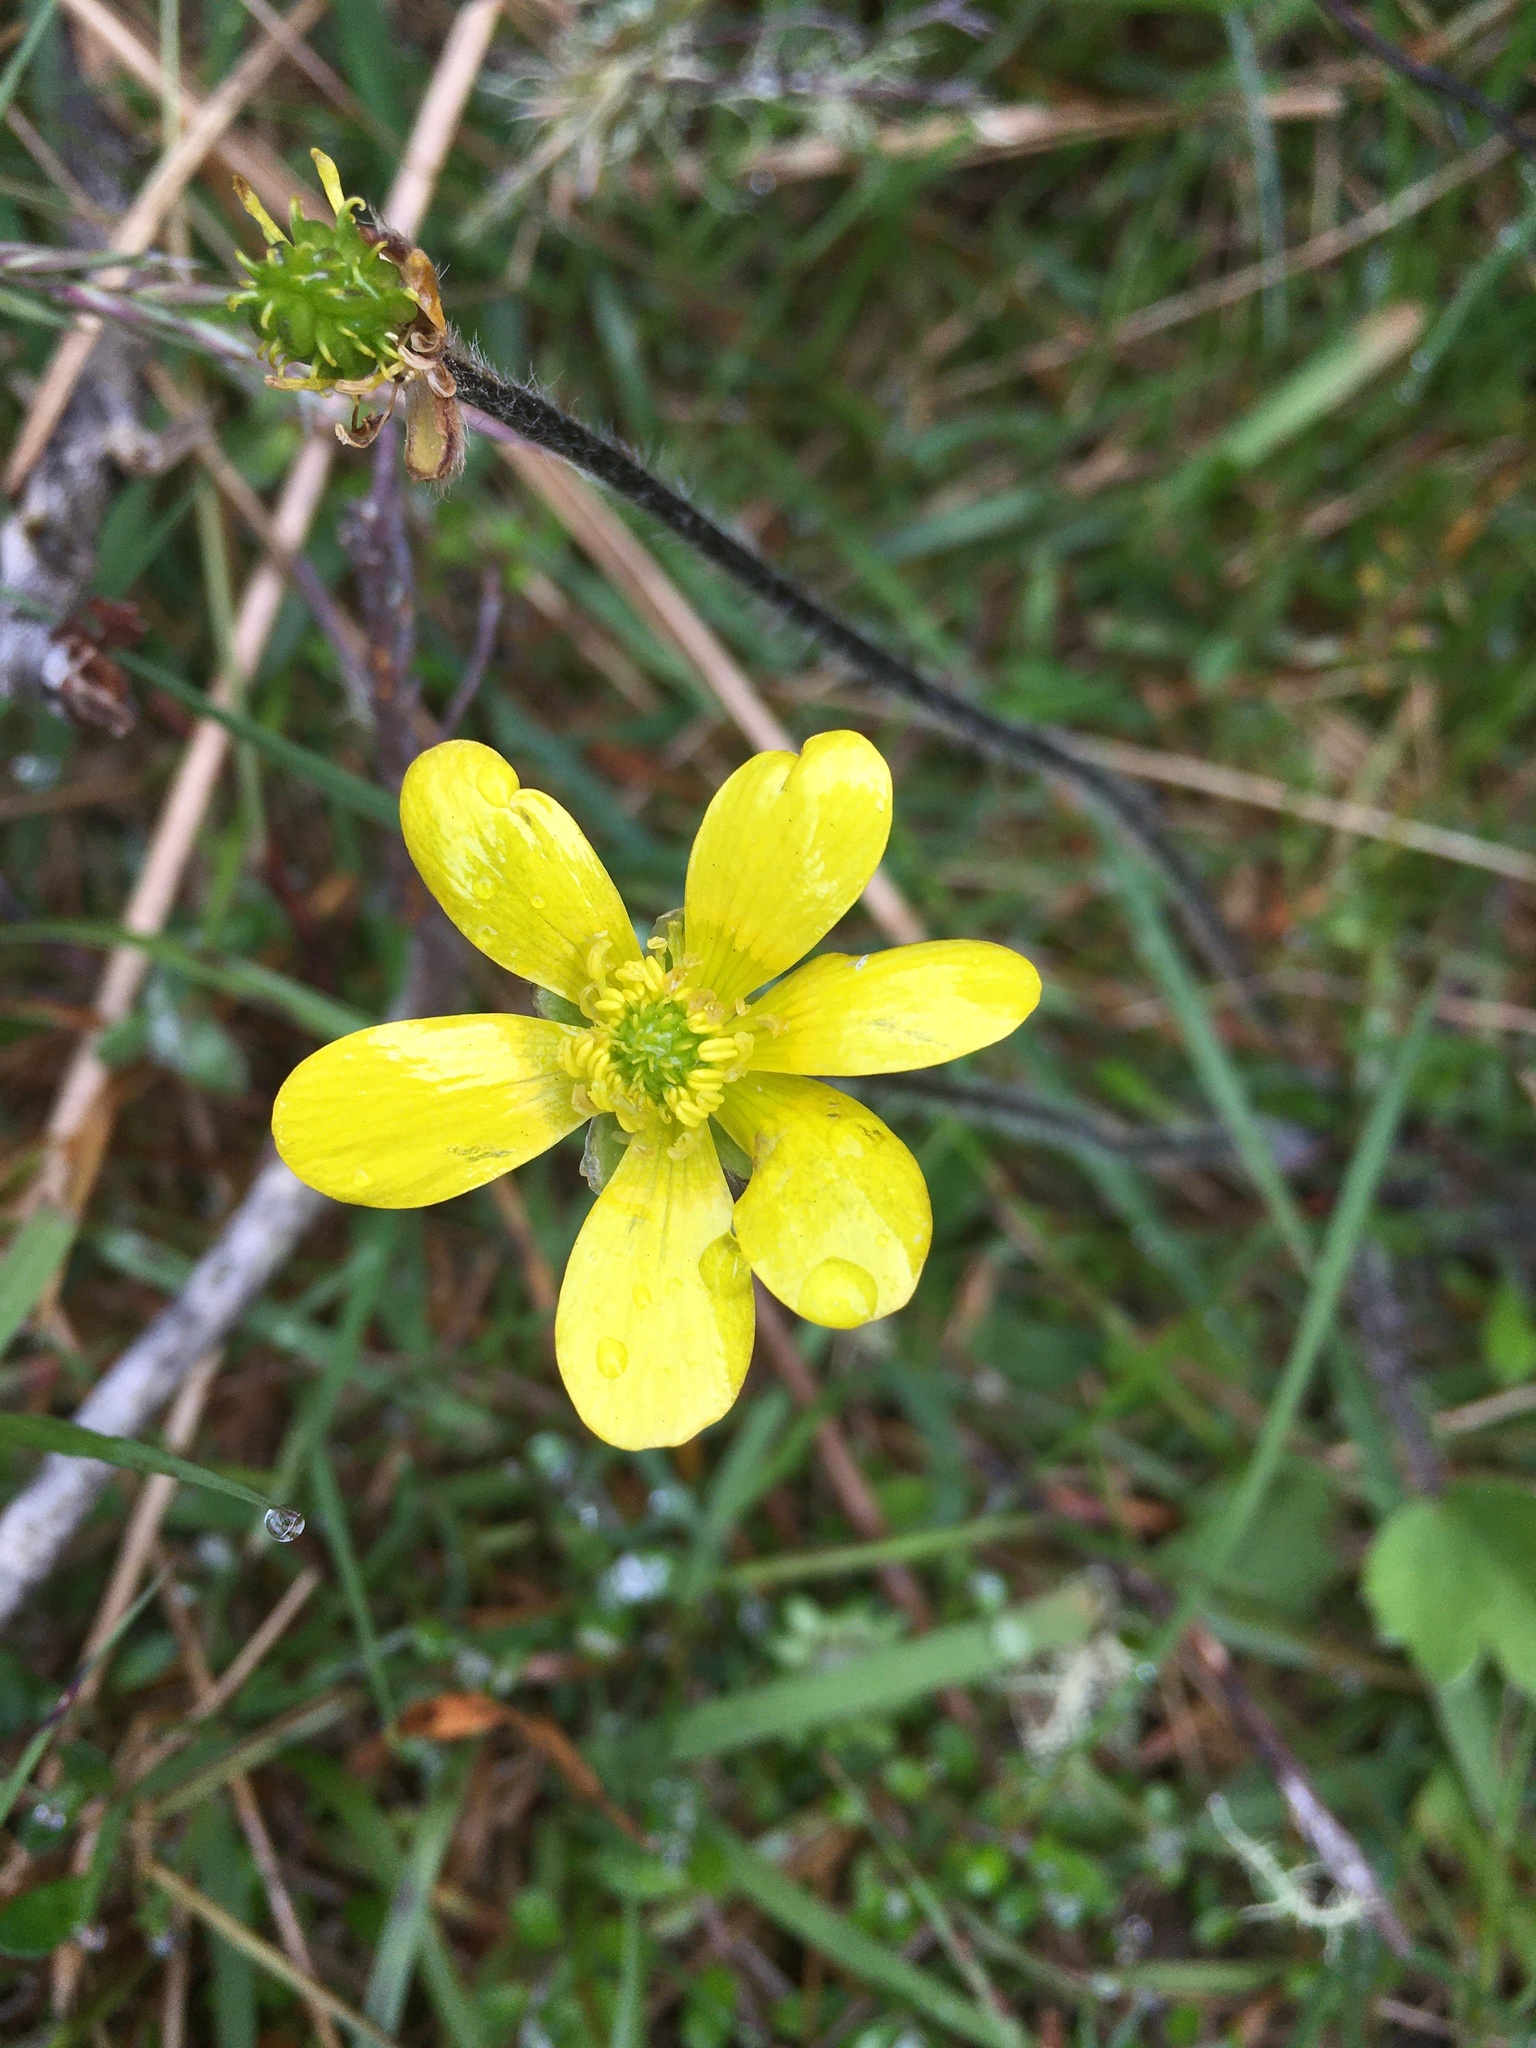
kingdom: Plantae
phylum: Tracheophyta
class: Magnoliopsida
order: Ranunculales
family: Ranunculaceae
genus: Ranunculus
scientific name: Ranunculus multiscapus
